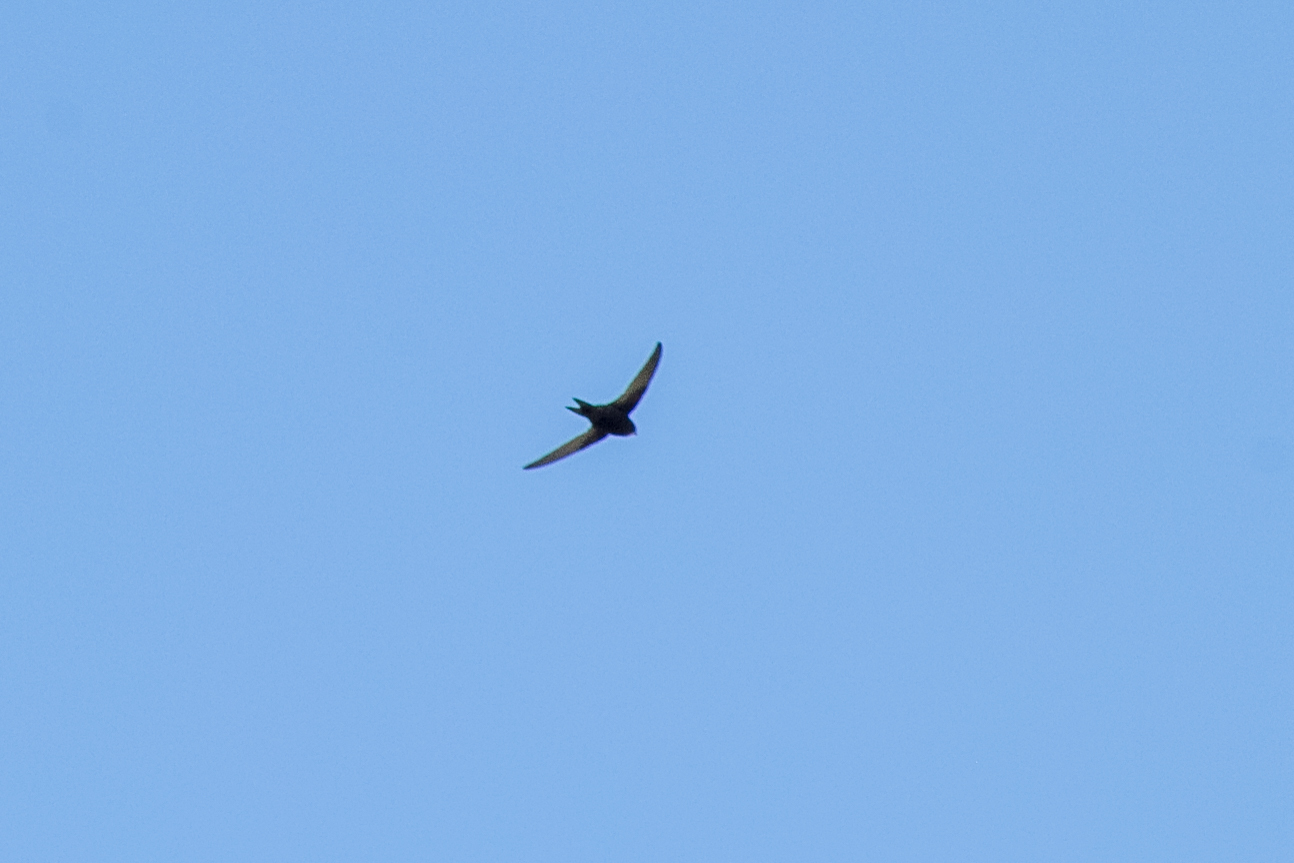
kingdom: Animalia
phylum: Chordata
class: Aves
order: Apodiformes
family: Apodidae
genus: Apus
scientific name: Apus apus
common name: Common swift
